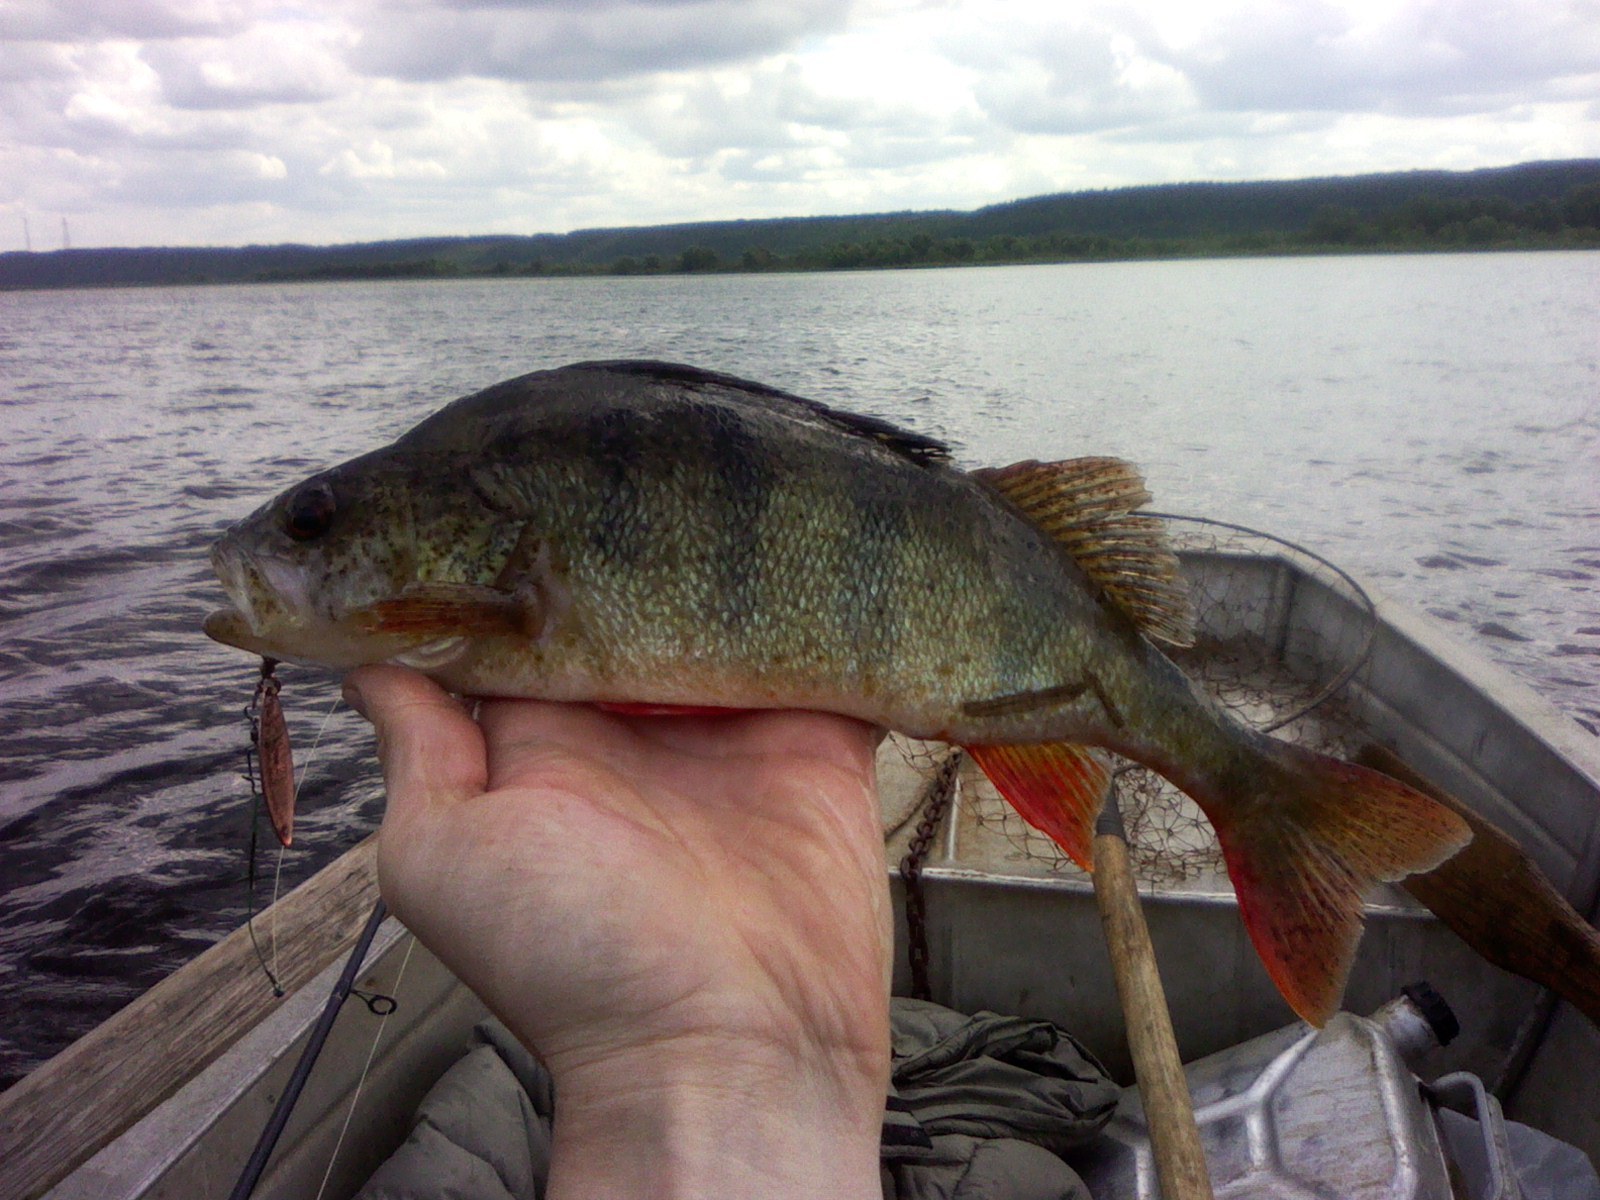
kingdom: Animalia
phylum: Chordata
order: Perciformes
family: Percidae
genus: Perca
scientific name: Perca fluviatilis
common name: Perch
